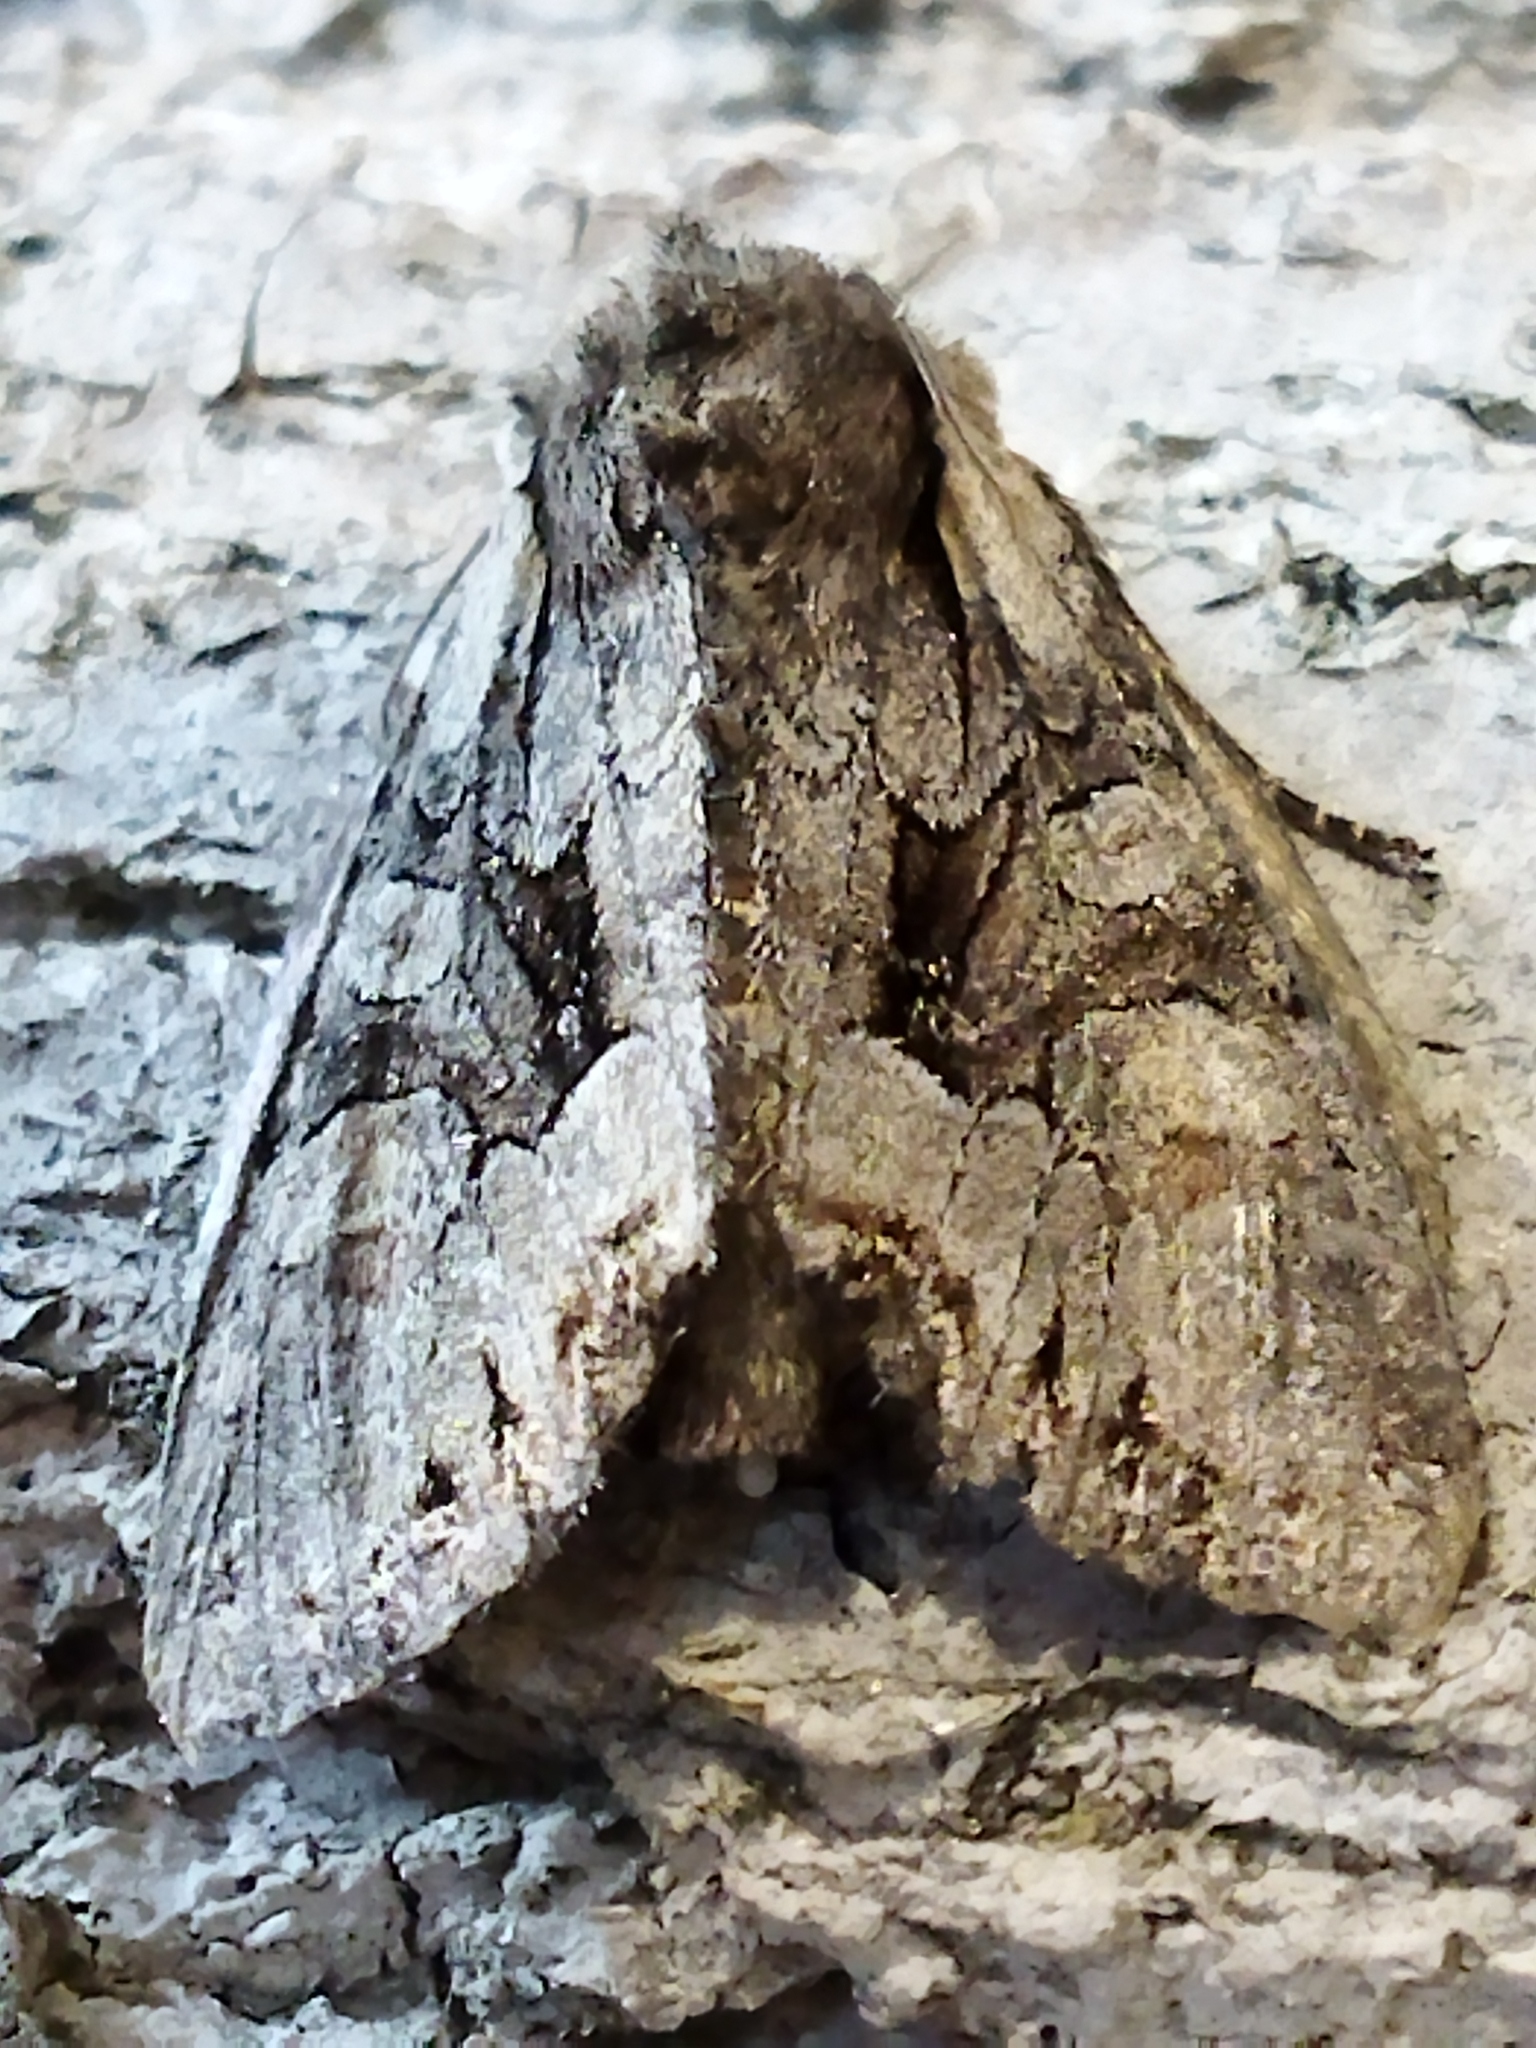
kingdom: Animalia
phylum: Arthropoda
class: Insecta
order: Lepidoptera
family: Noctuidae
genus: Lacanobia
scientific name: Lacanobia w-latinum
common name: Light brocade
